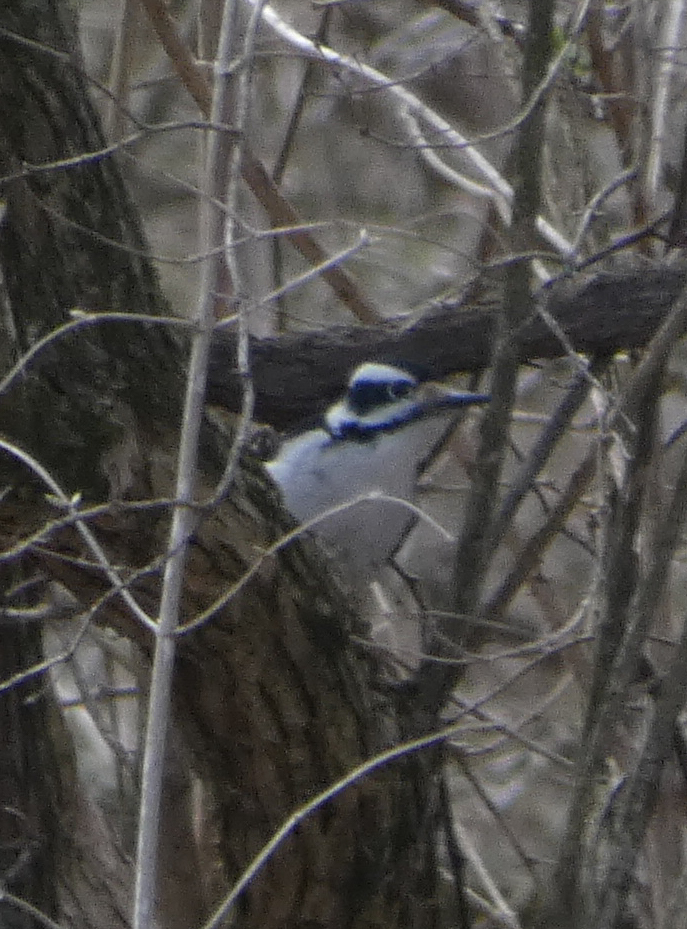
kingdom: Animalia
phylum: Chordata
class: Aves
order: Piciformes
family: Picidae
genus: Leuconotopicus
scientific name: Leuconotopicus villosus
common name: Hairy woodpecker
